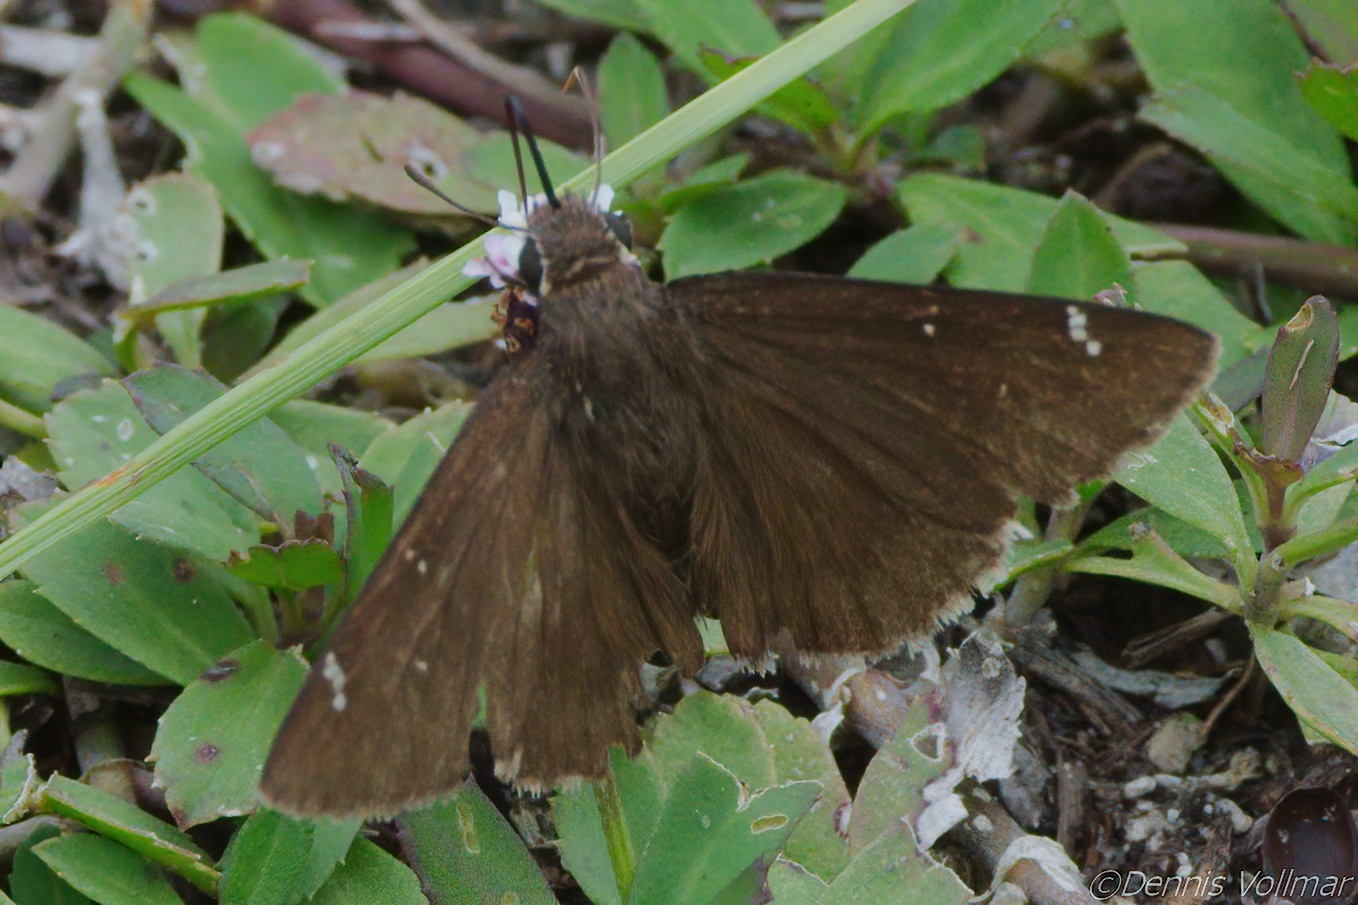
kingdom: Animalia
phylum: Arthropoda
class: Insecta
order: Lepidoptera
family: Hesperiidae
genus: Thorybes
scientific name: Thorybes mexicana
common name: Mexican cloudywing
